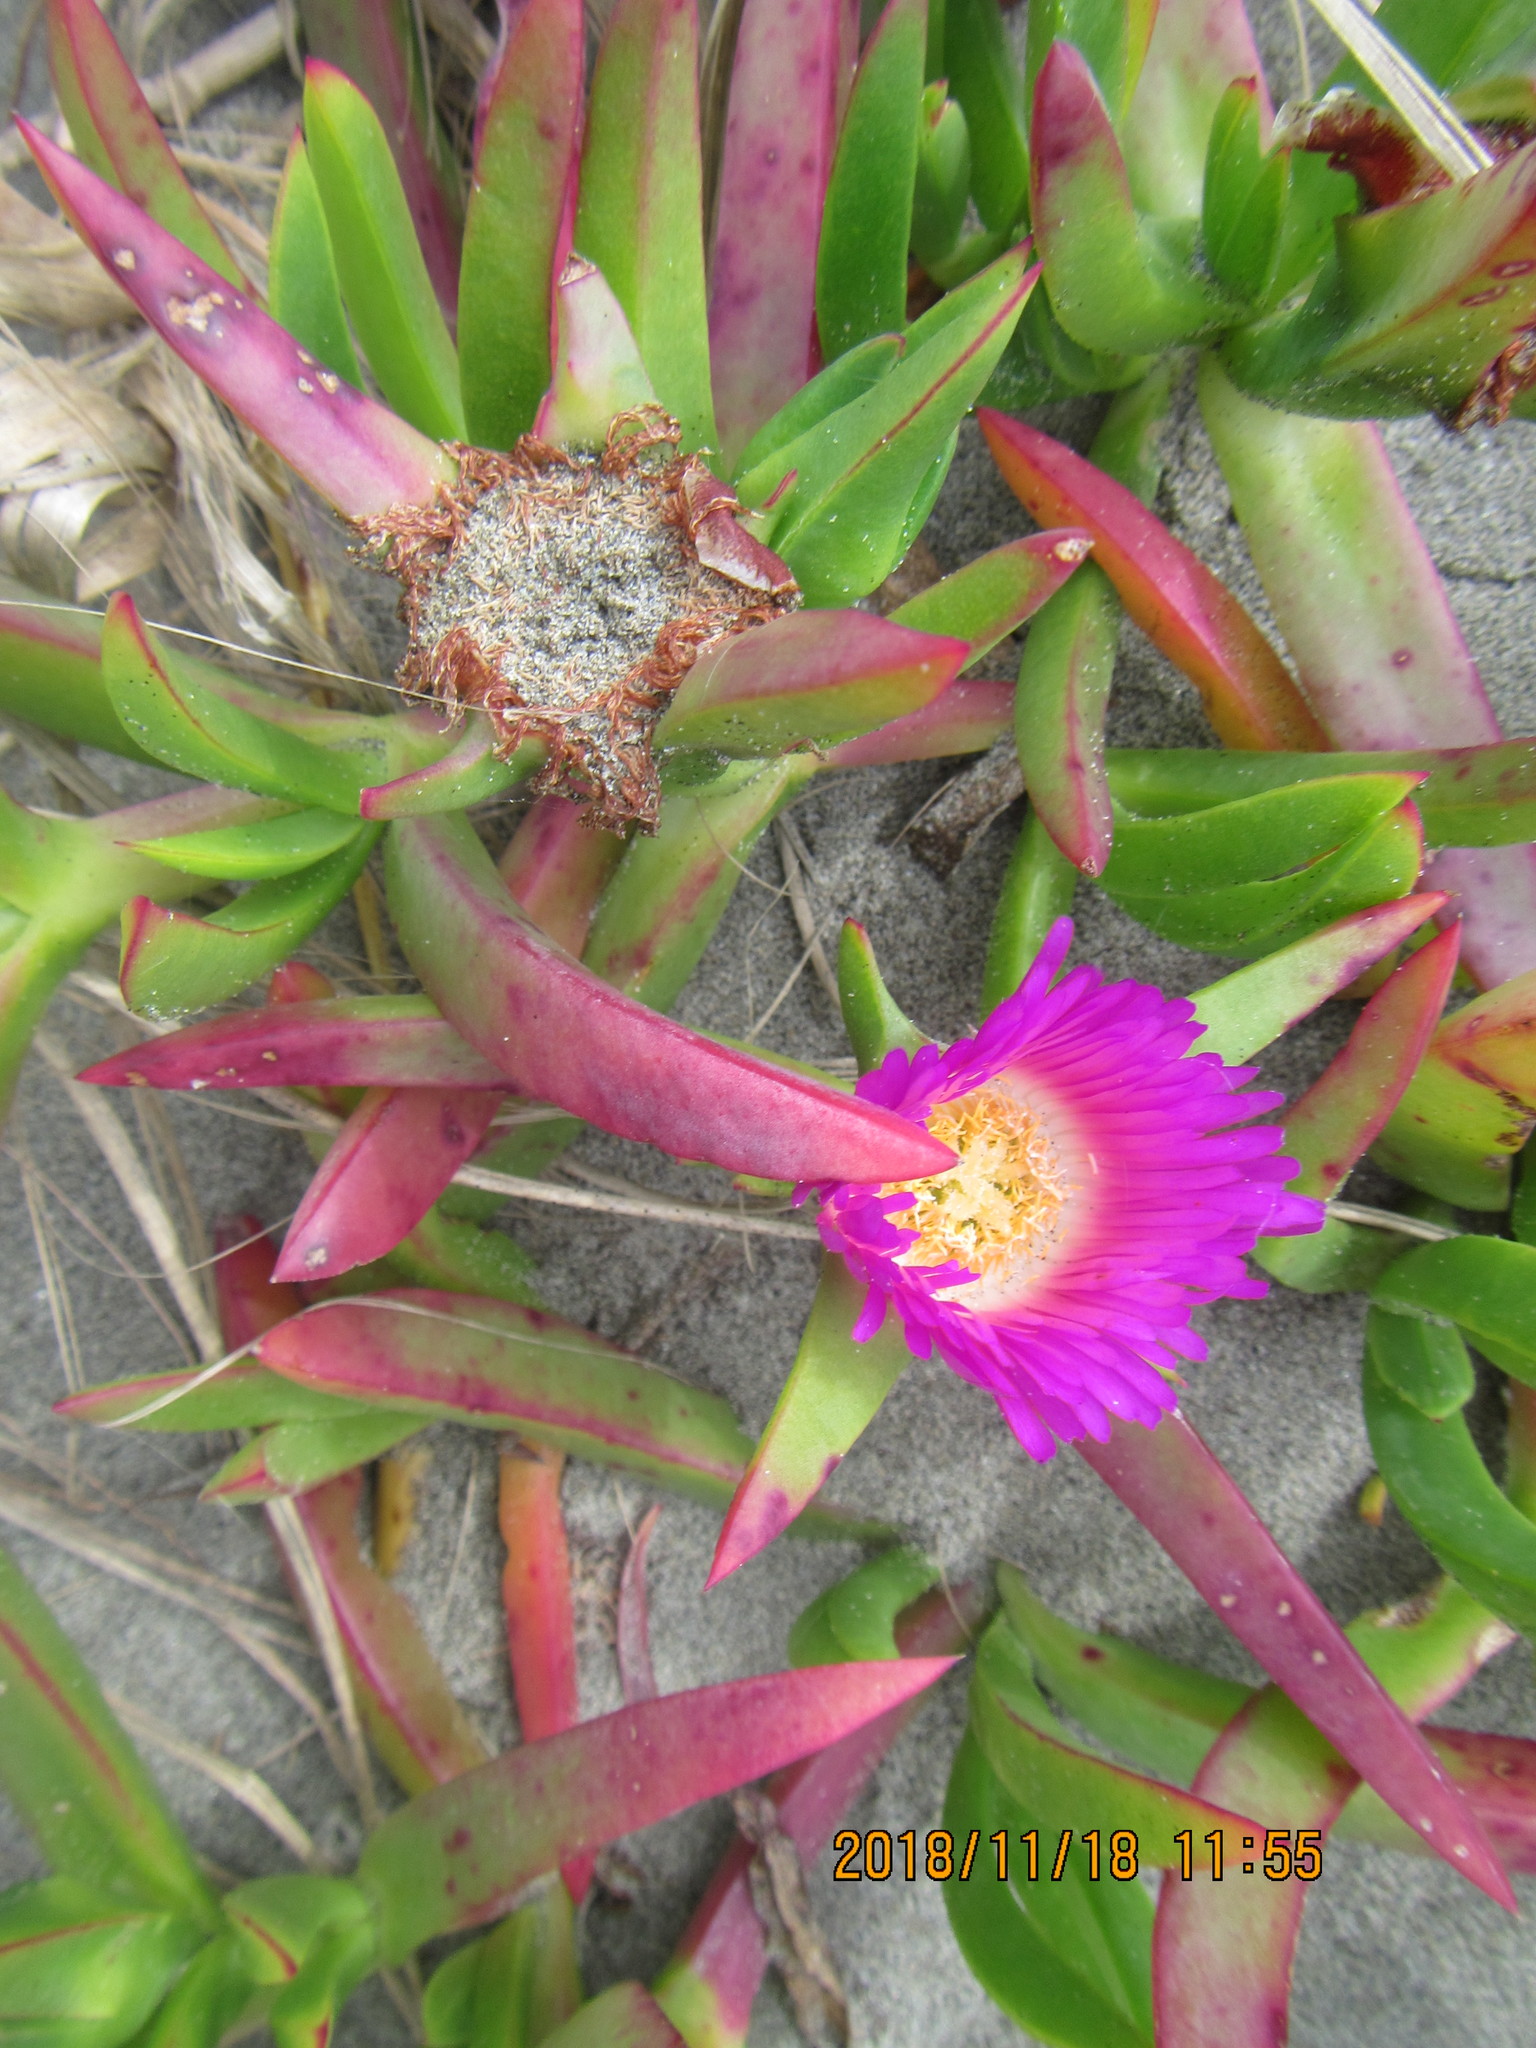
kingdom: Plantae
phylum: Tracheophyta
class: Magnoliopsida
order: Caryophyllales
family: Aizoaceae
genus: Carpobrotus
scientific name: Carpobrotus chilensis
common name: Sea fig
